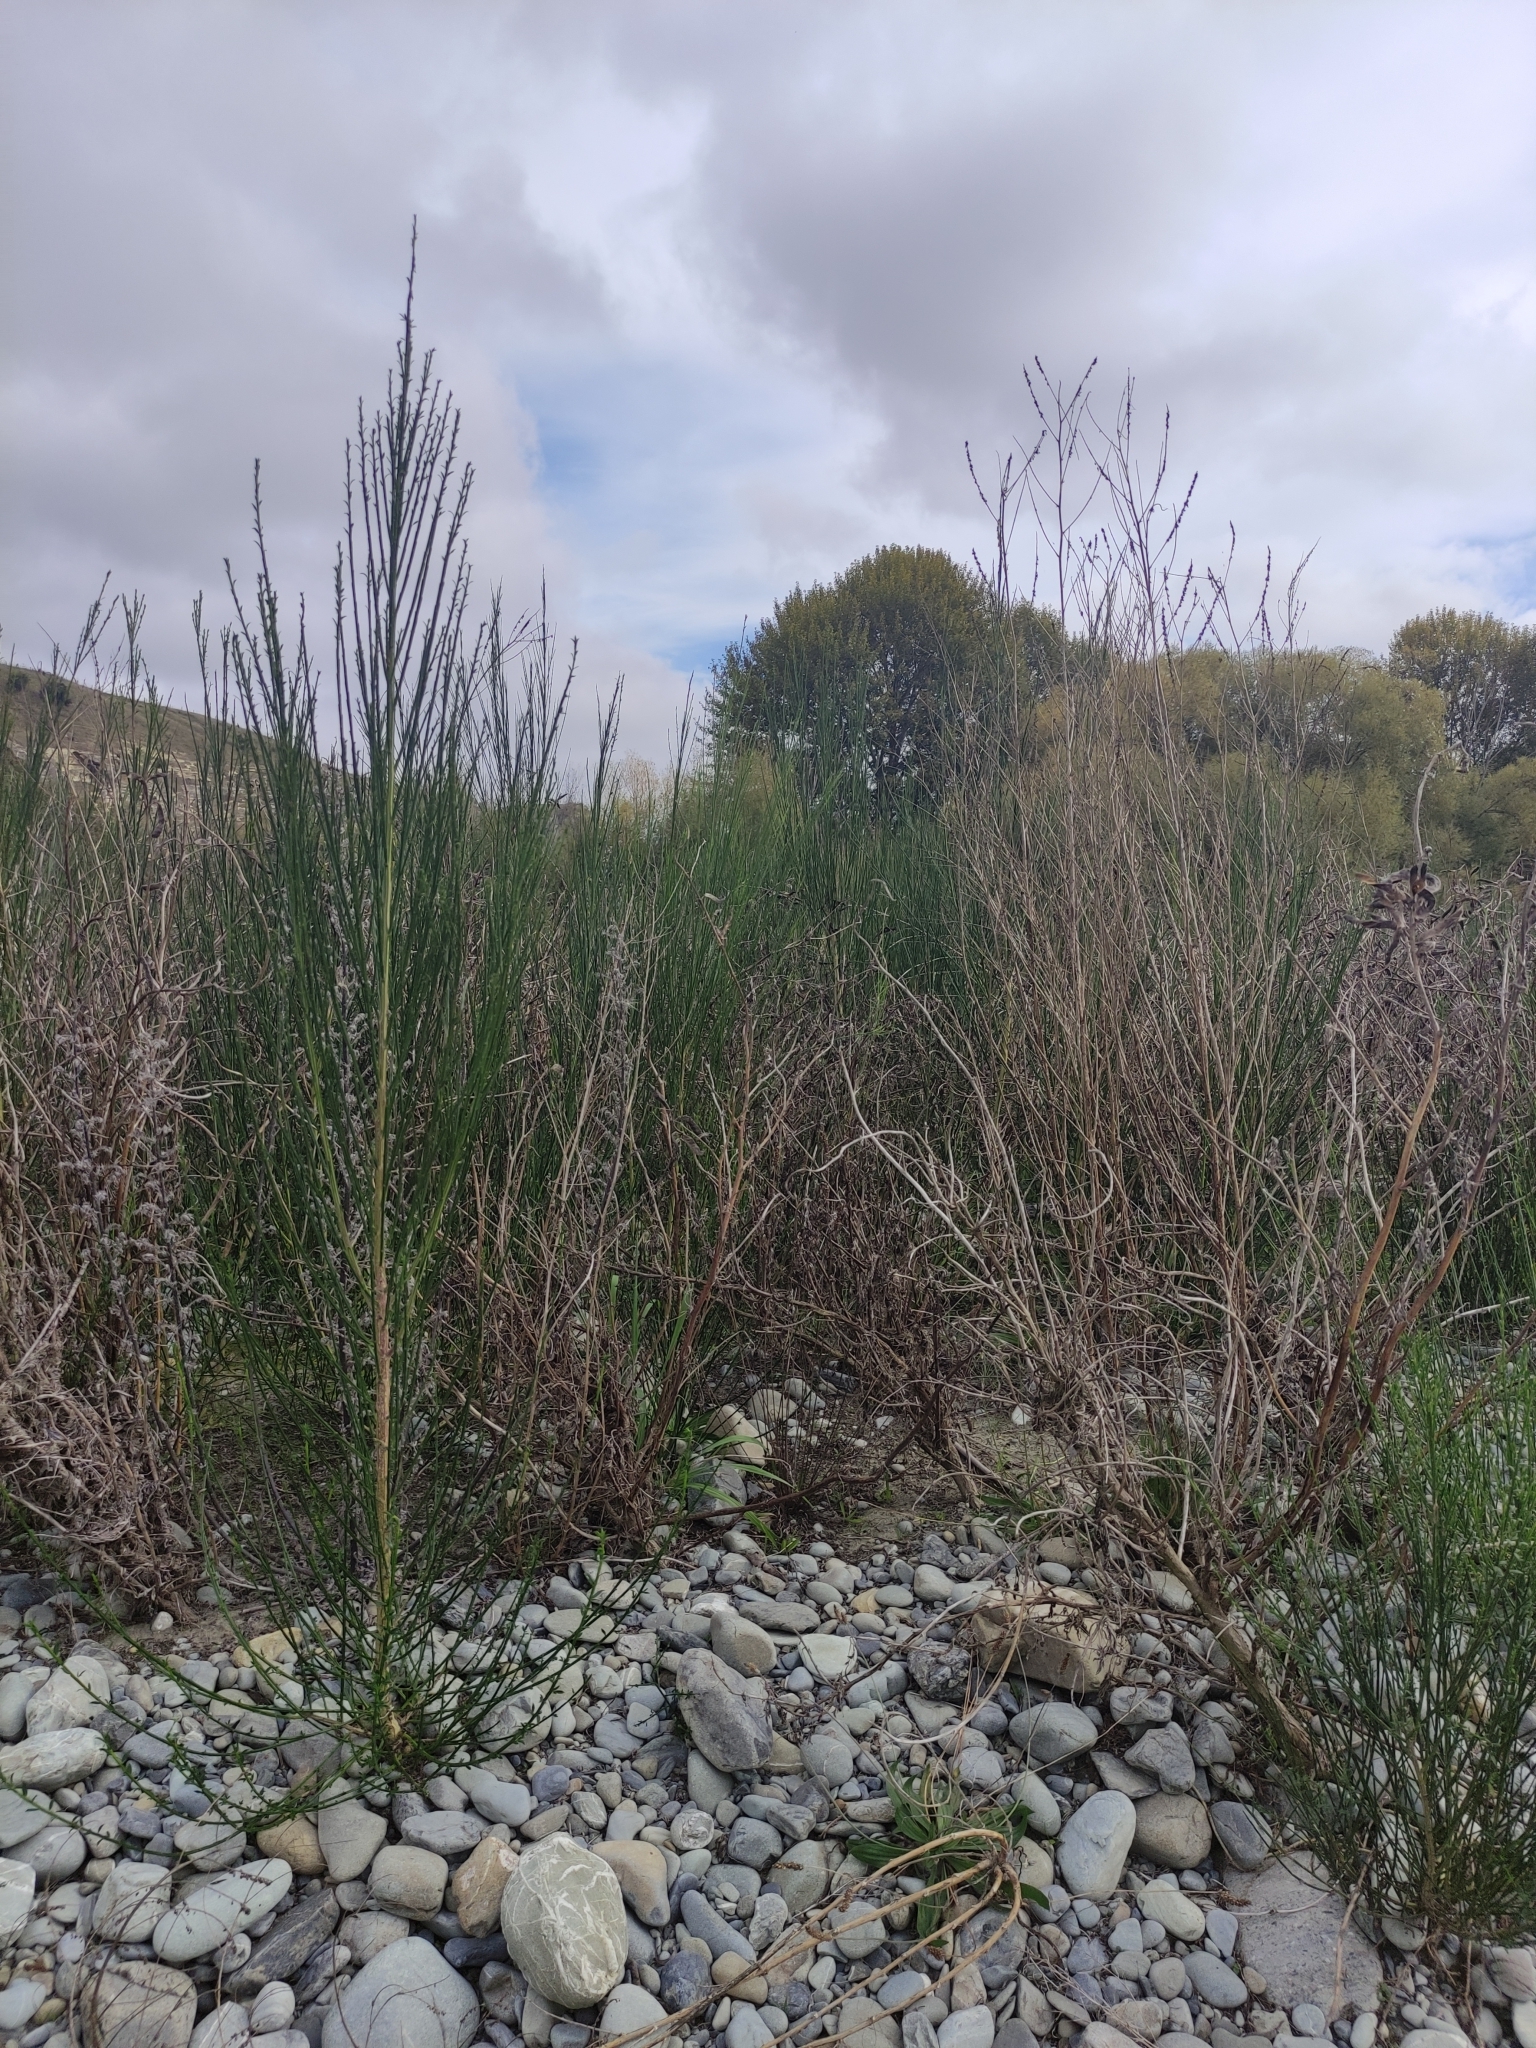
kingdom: Plantae
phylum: Tracheophyta
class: Magnoliopsida
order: Fabales
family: Fabaceae
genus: Cytisus
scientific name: Cytisus scoparius
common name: Scotch broom
